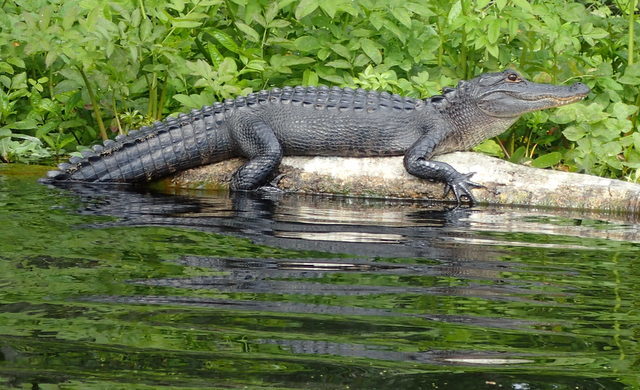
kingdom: Animalia
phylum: Chordata
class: Crocodylia
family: Alligatoridae
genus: Alligator
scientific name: Alligator mississippiensis
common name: American alligator
